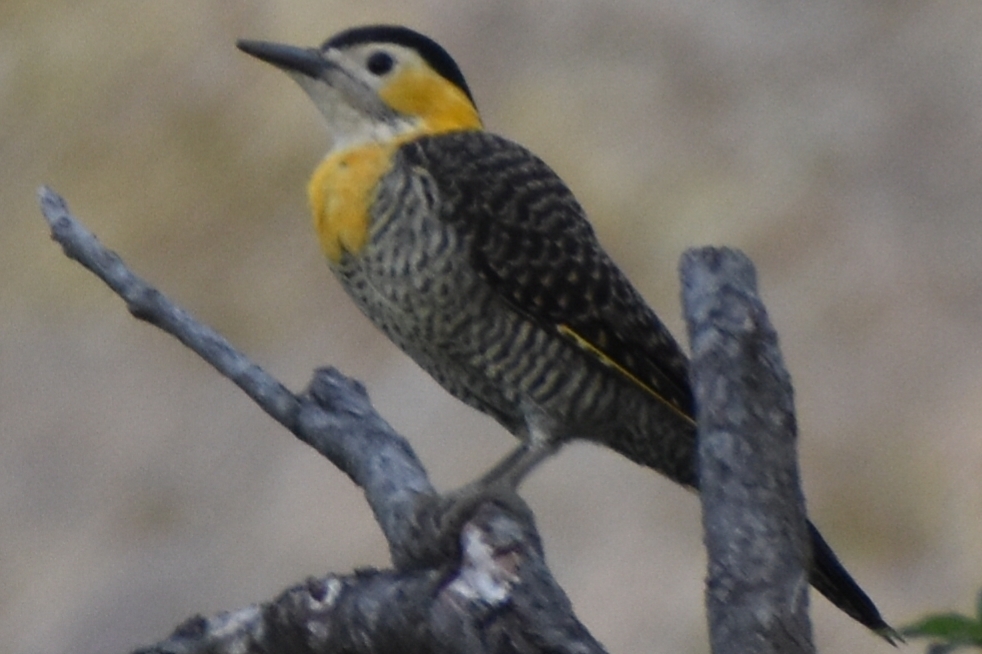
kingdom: Animalia
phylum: Chordata
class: Aves
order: Piciformes
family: Picidae
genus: Colaptes
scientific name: Colaptes campestris
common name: Campo flicker
